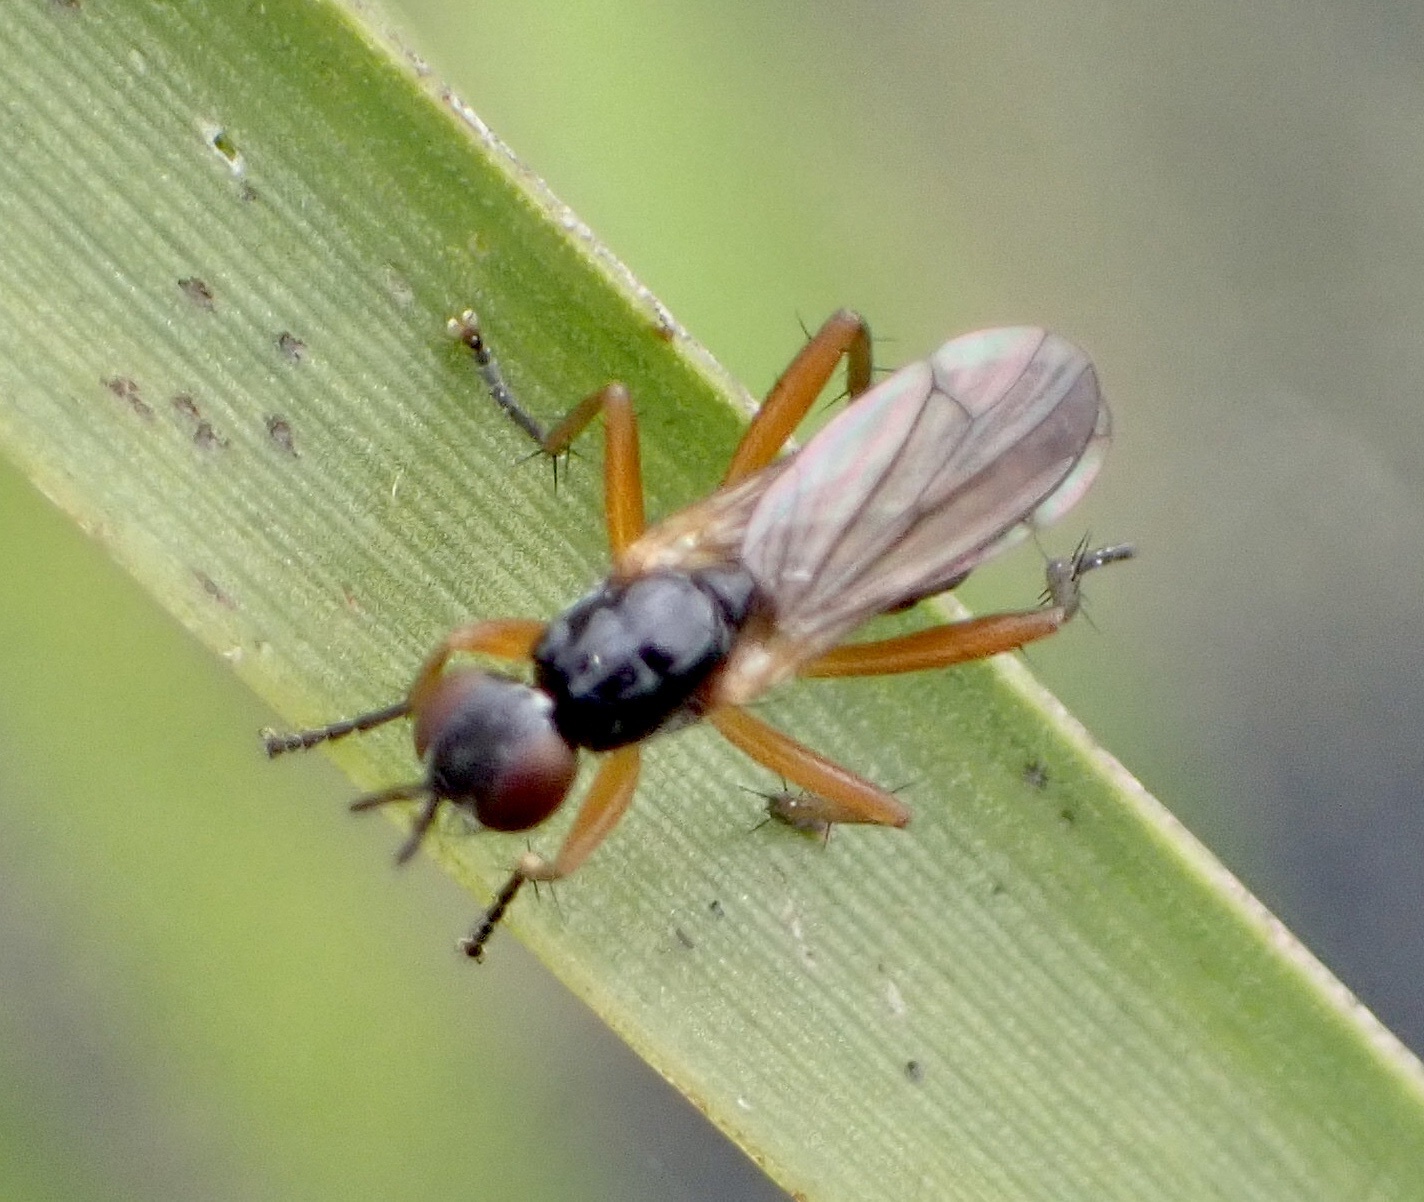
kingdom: Animalia
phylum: Arthropoda
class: Insecta
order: Diptera
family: Scathophagidae
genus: Cordilura
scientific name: Cordilura albilabris
